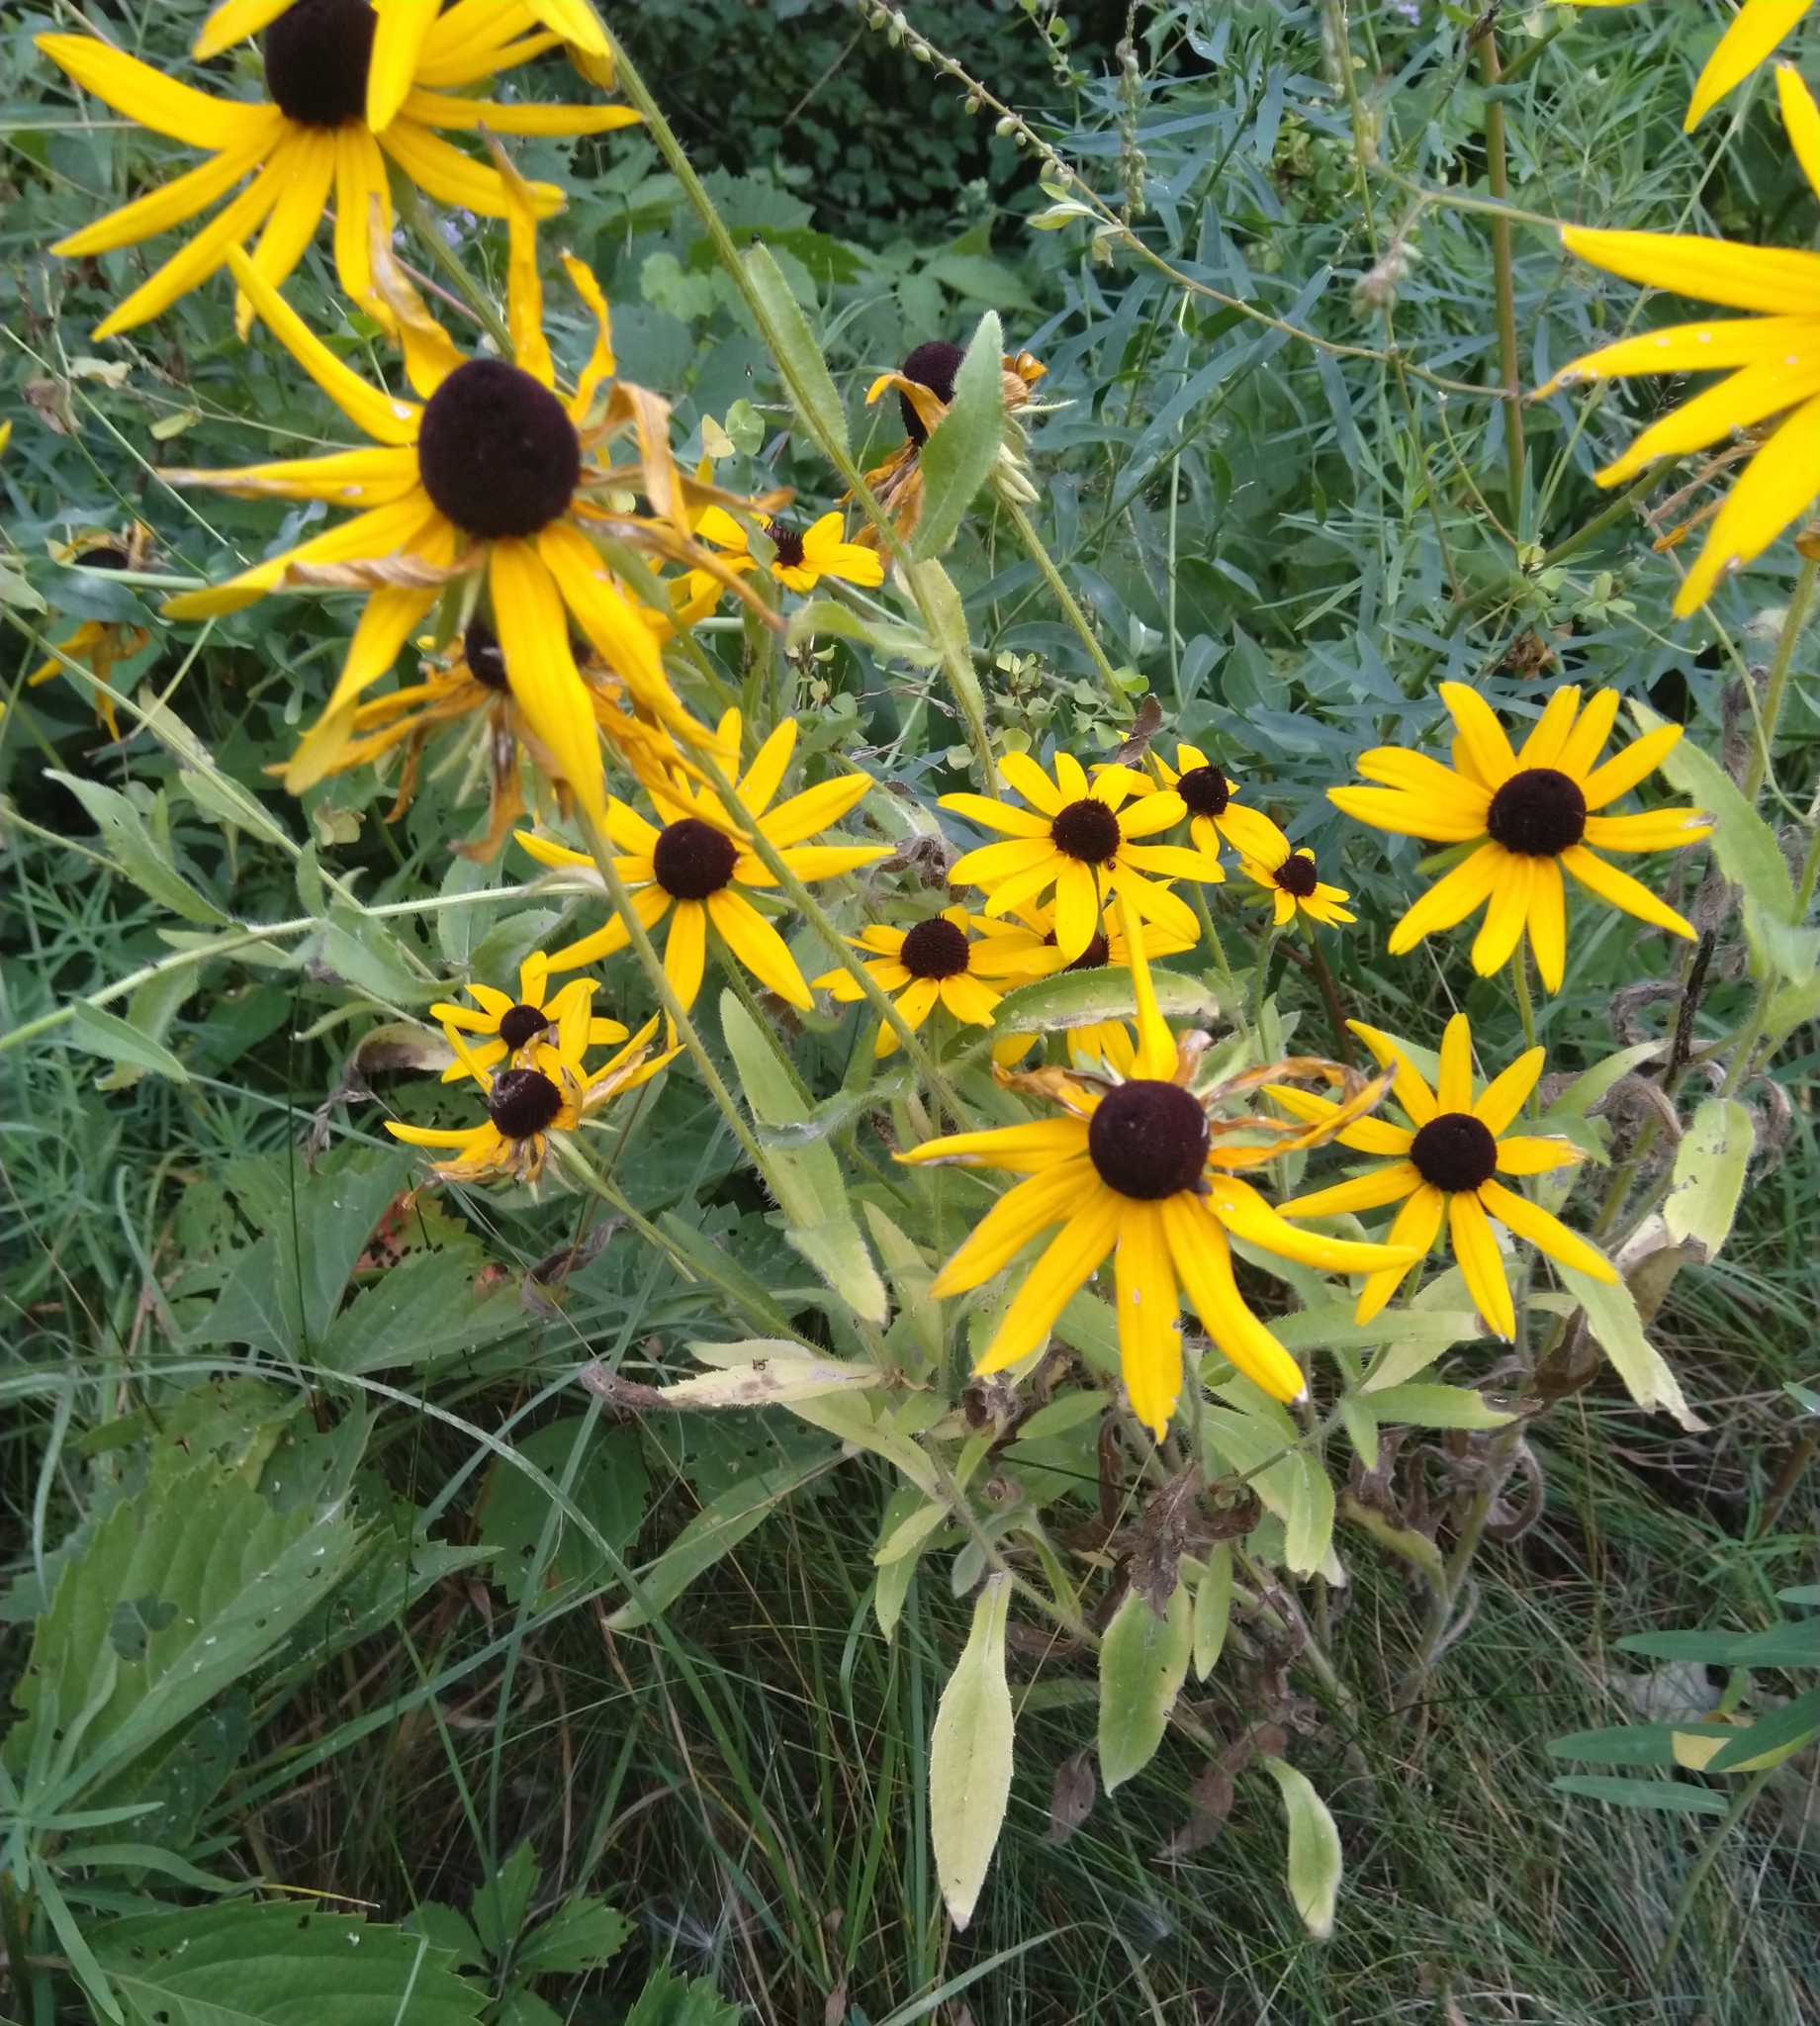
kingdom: Plantae
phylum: Tracheophyta
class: Magnoliopsida
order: Asterales
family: Asteraceae
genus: Rudbeckia
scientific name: Rudbeckia hirta
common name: Black-eyed-susan
